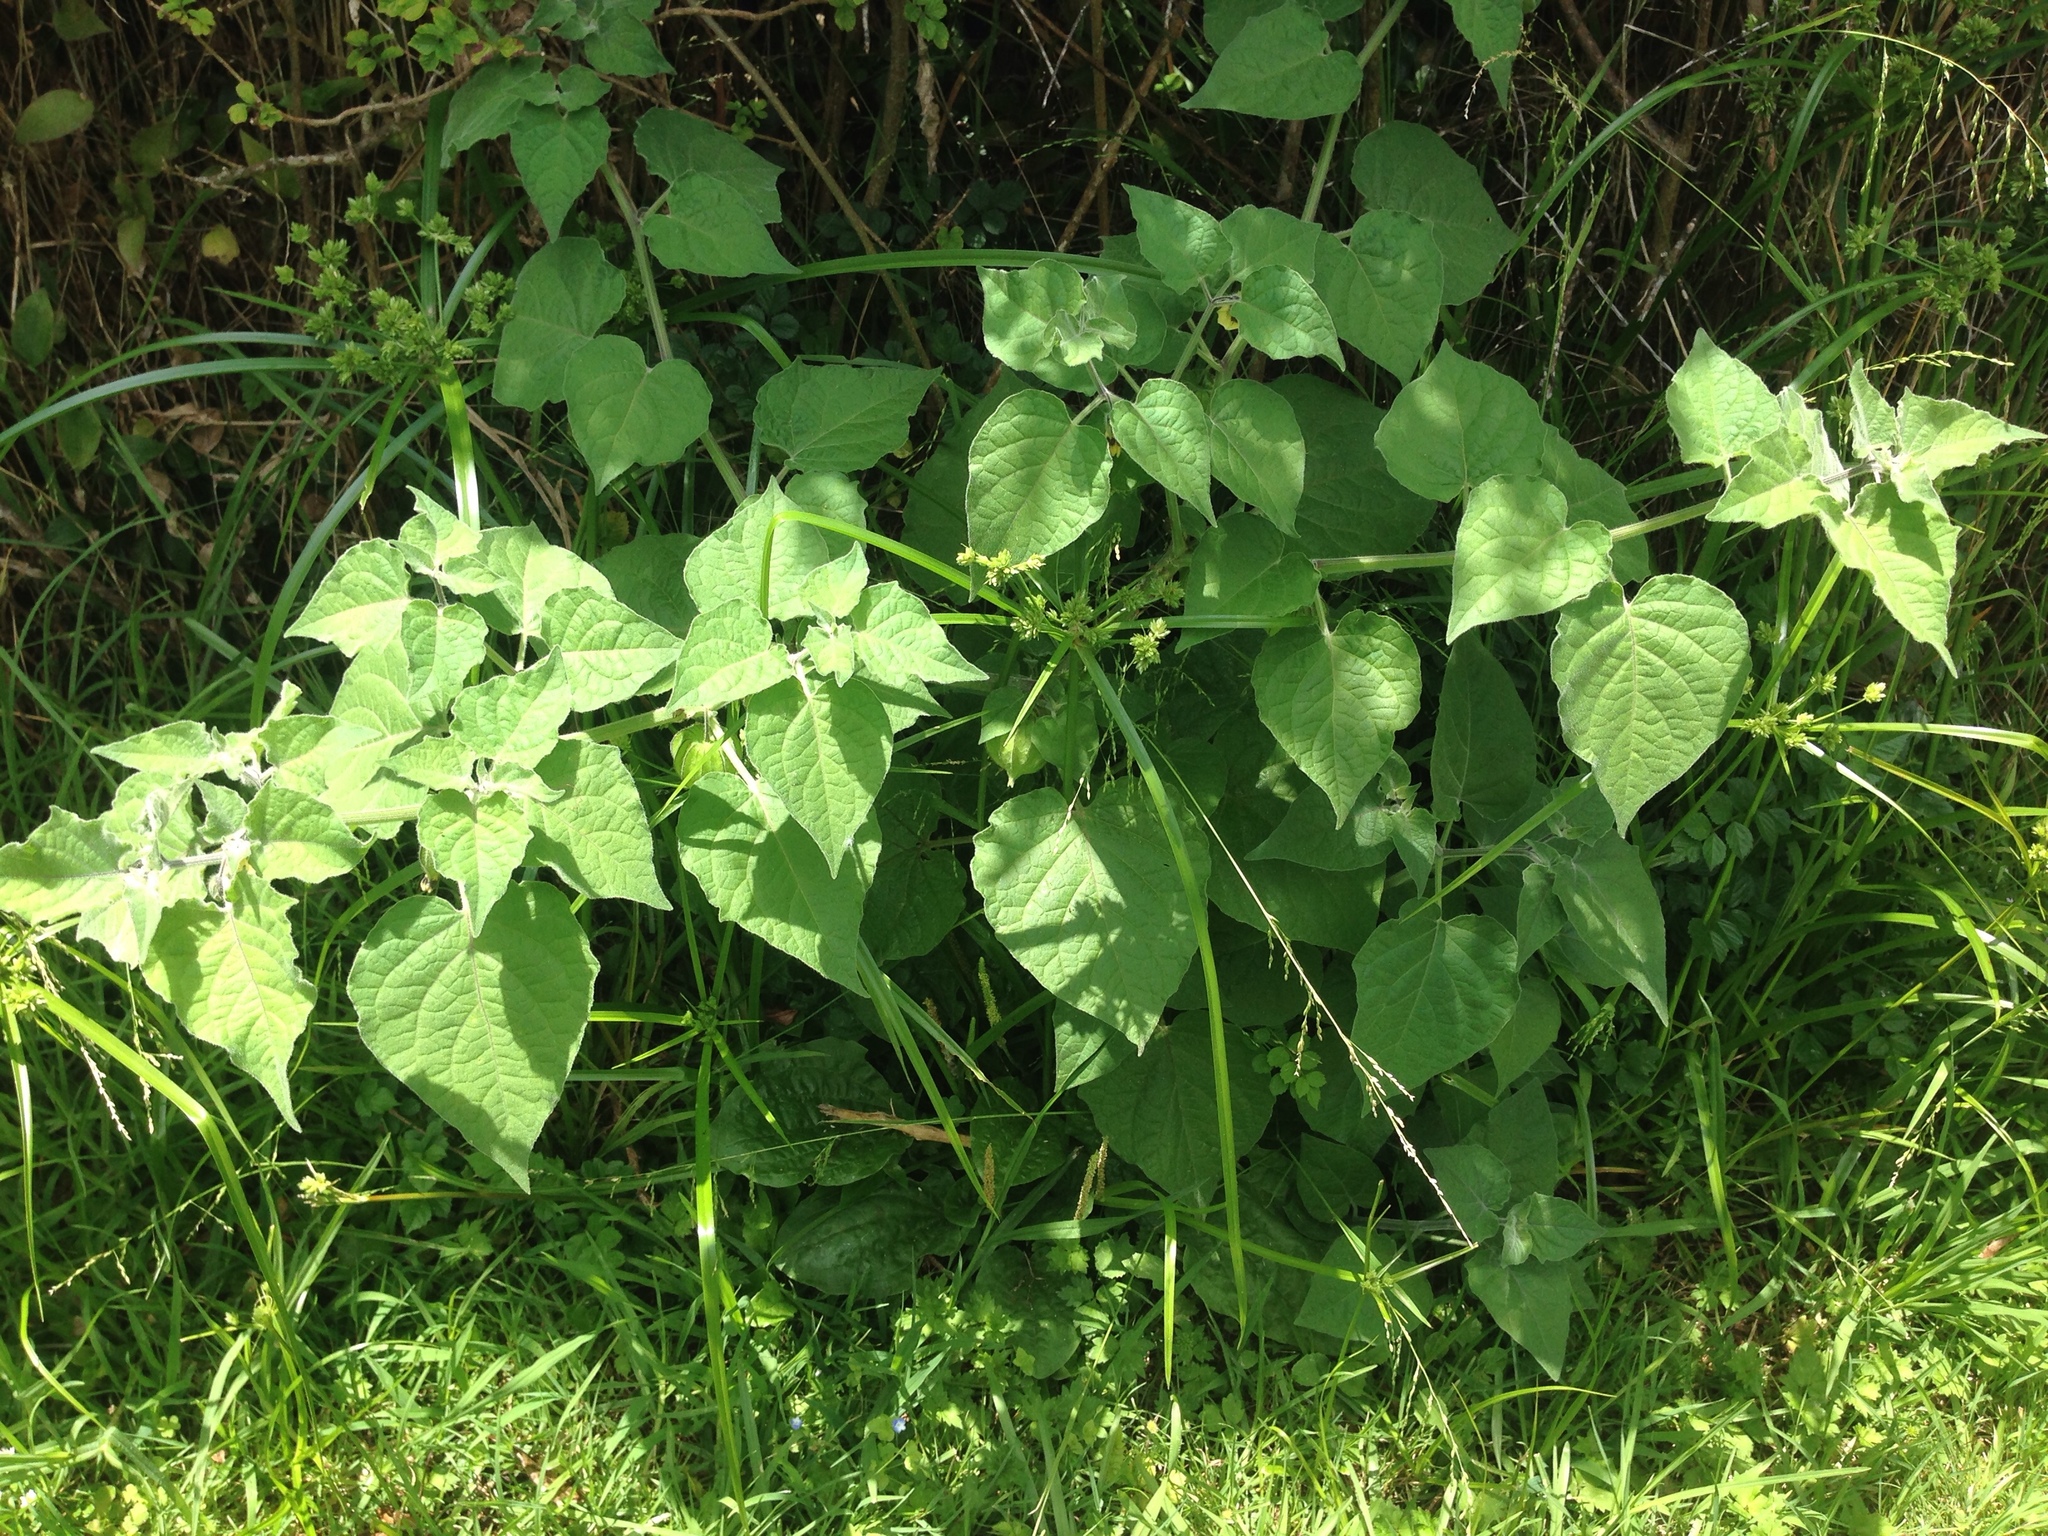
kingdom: Plantae
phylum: Tracheophyta
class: Magnoliopsida
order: Solanales
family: Solanaceae
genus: Physalis
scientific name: Physalis peruviana
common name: Cape-gooseberry
